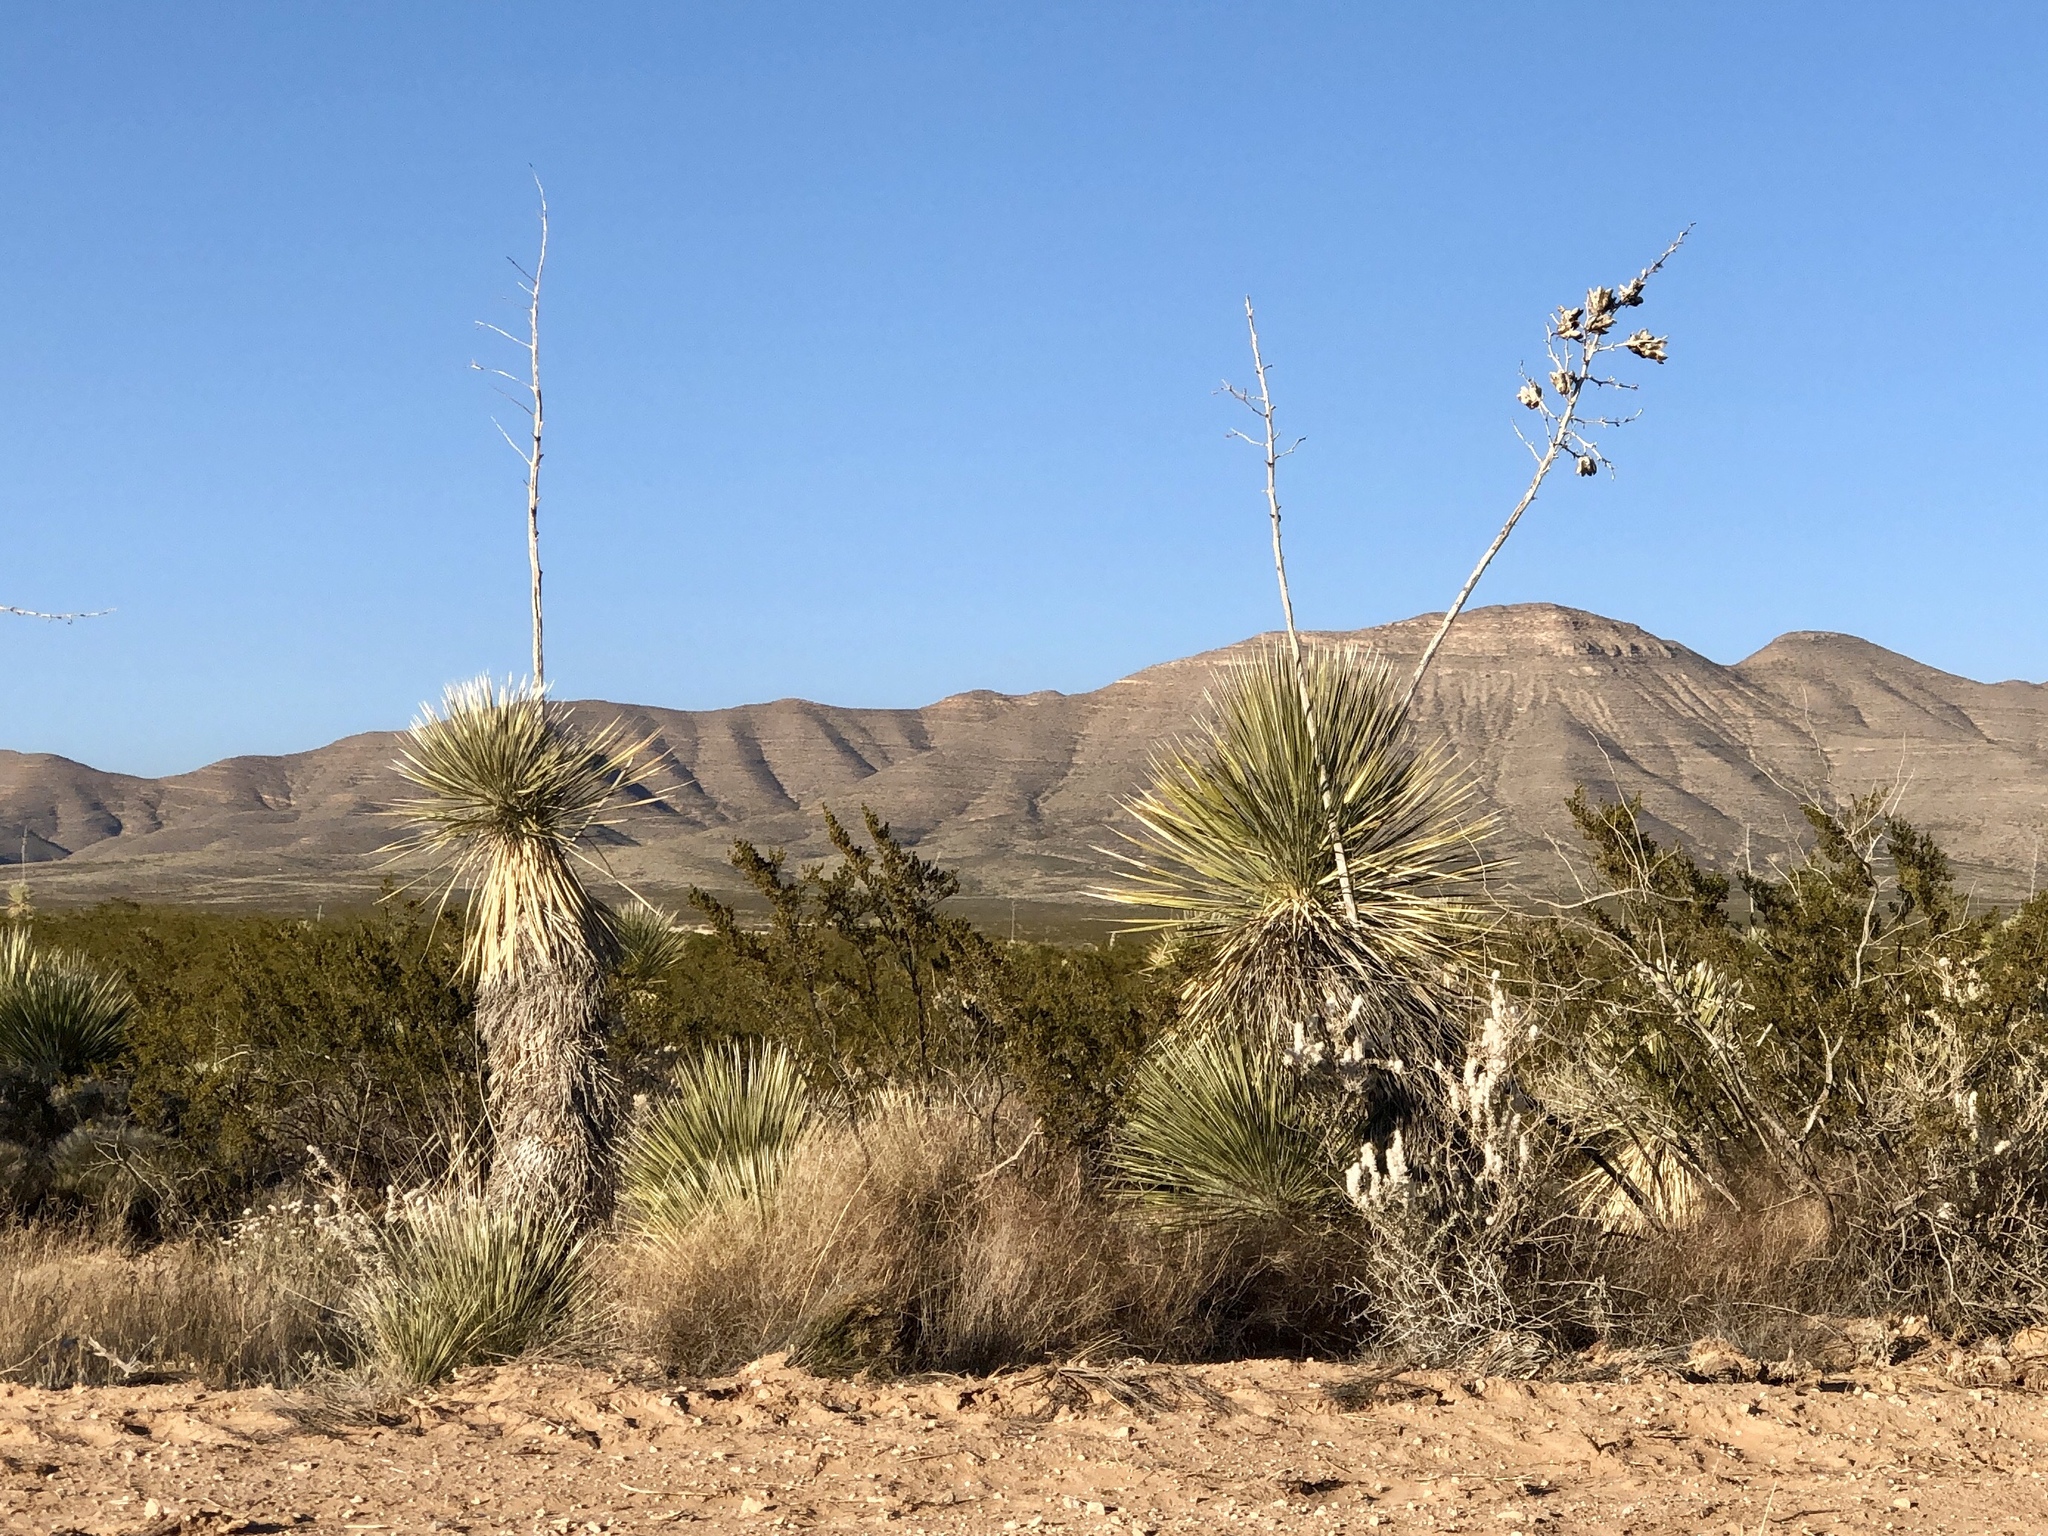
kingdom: Plantae
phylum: Tracheophyta
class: Liliopsida
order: Asparagales
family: Asparagaceae
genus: Yucca
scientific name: Yucca elata
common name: Palmella
